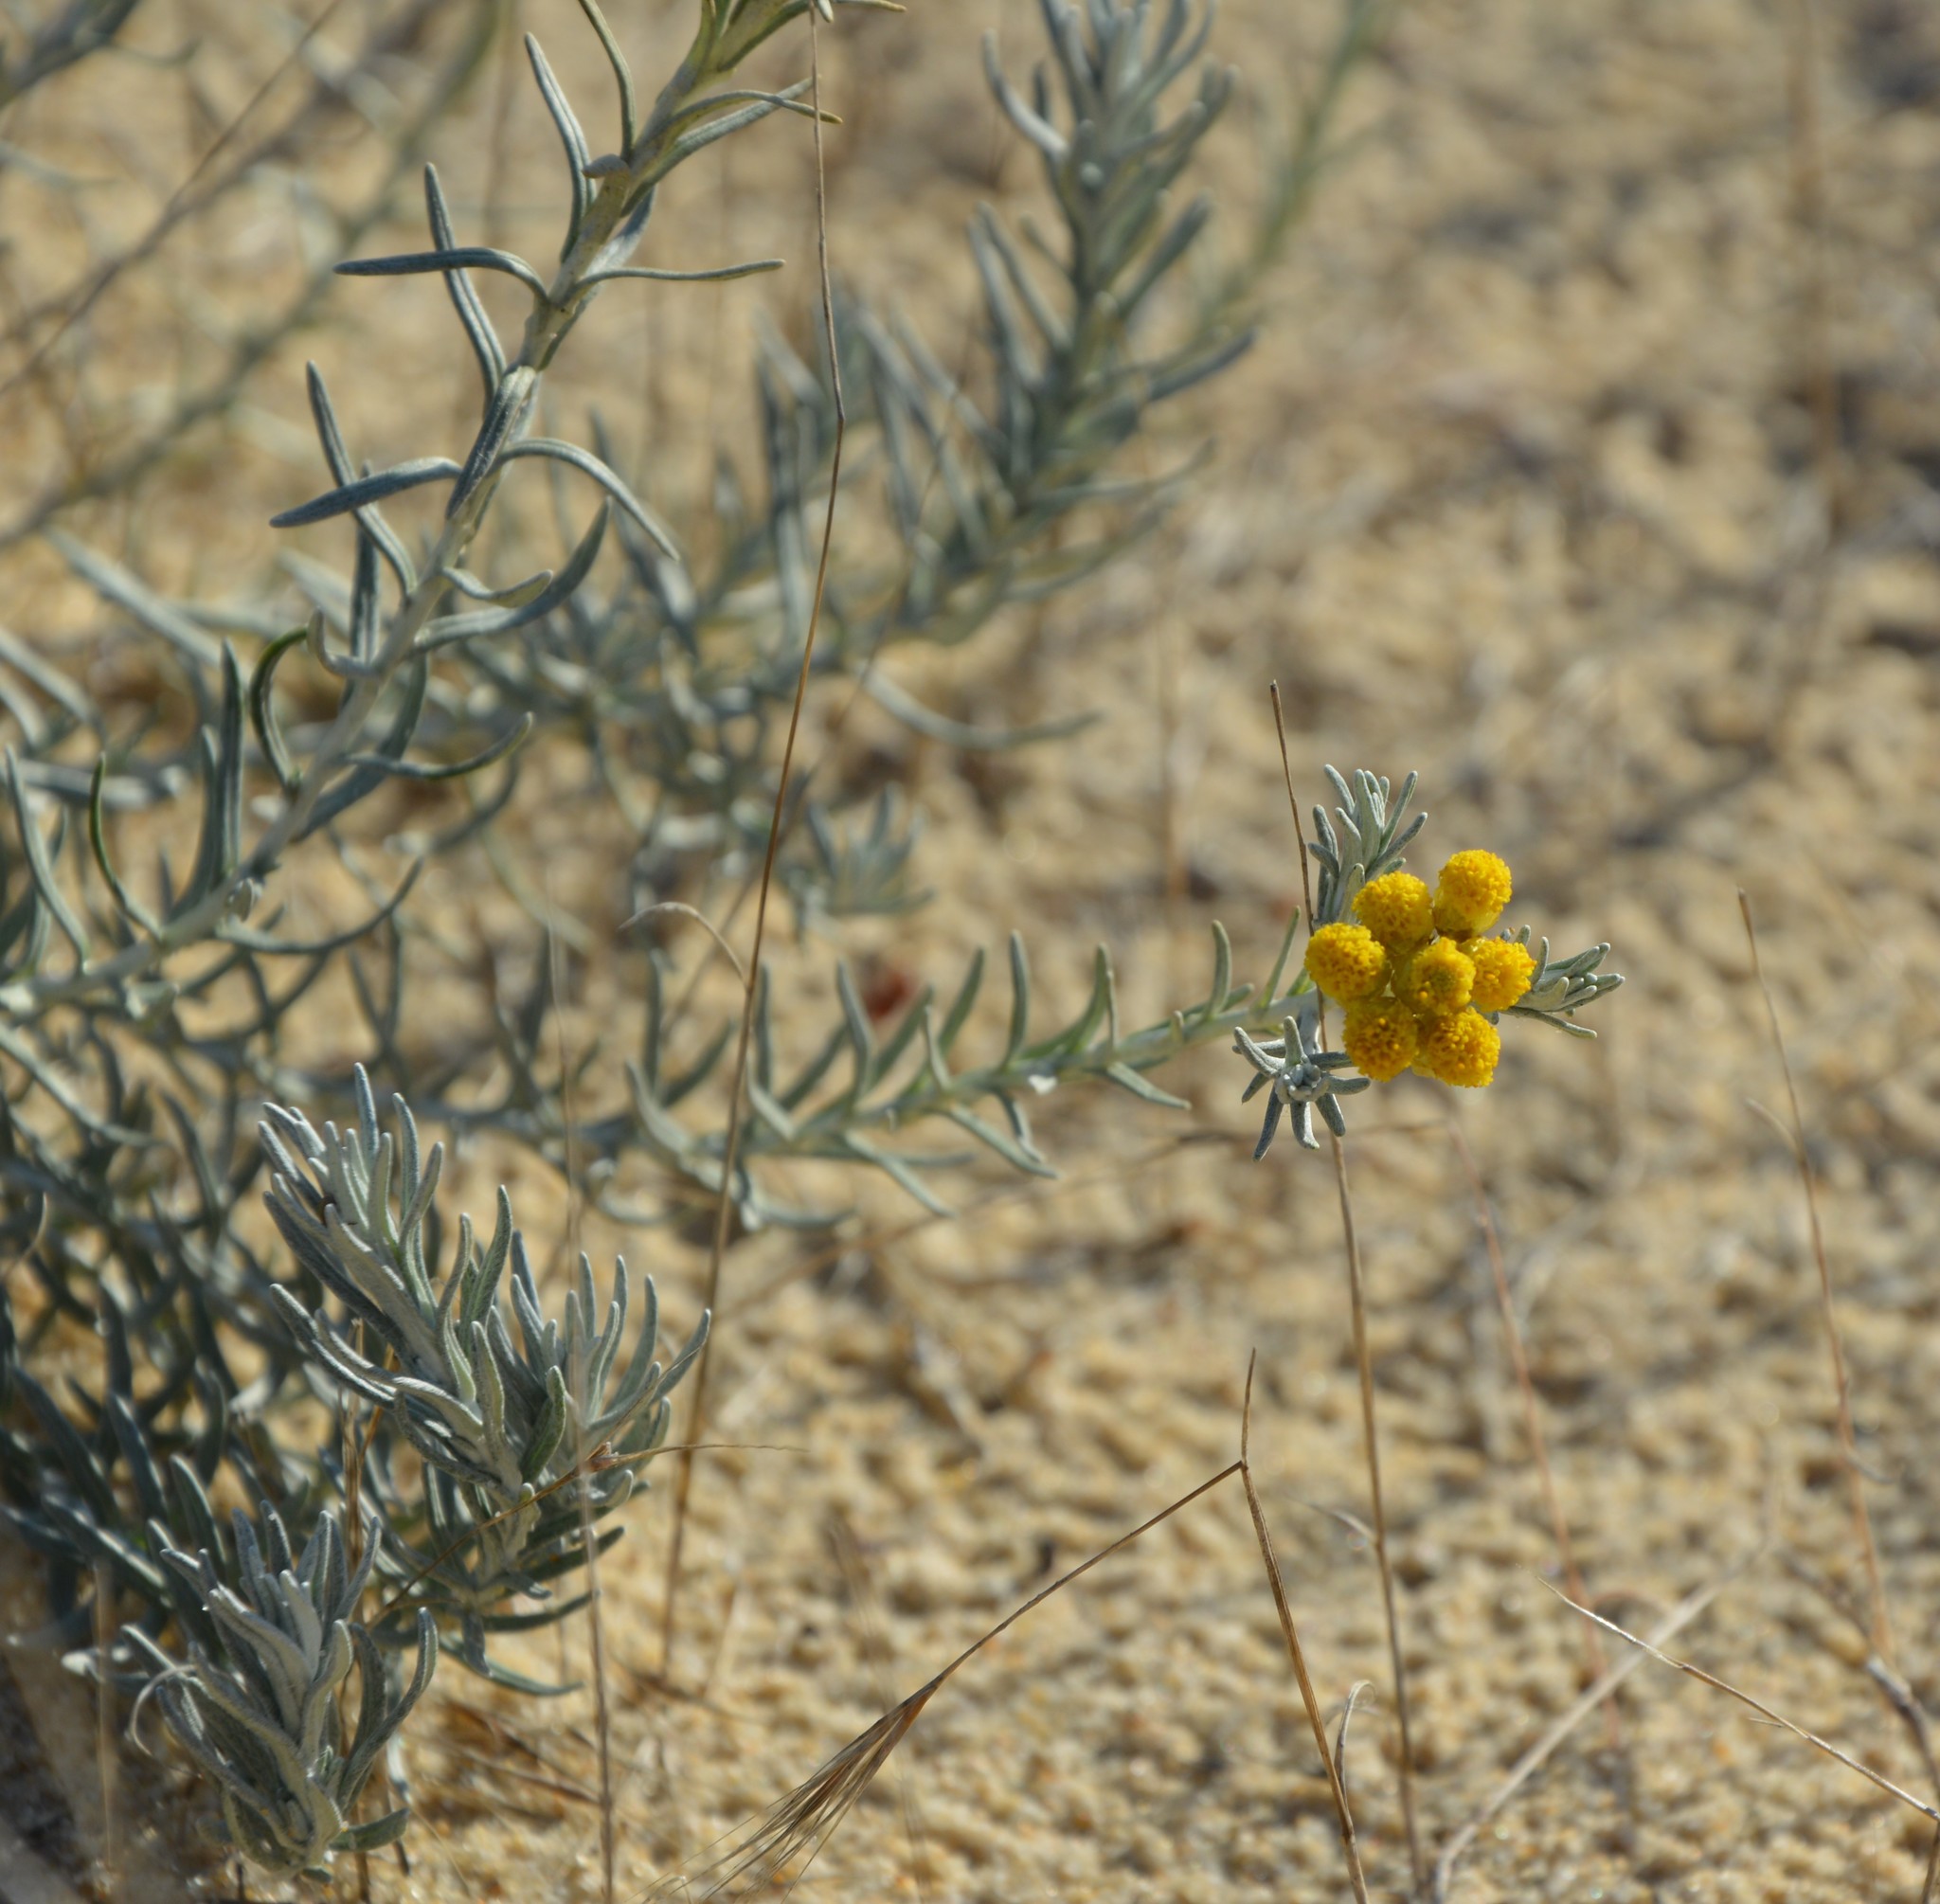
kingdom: Plantae
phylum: Tracheophyta
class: Magnoliopsida
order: Asterales
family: Asteraceae
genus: Helichrysum
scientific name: Helichrysum stoechas
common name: Goldilocks
